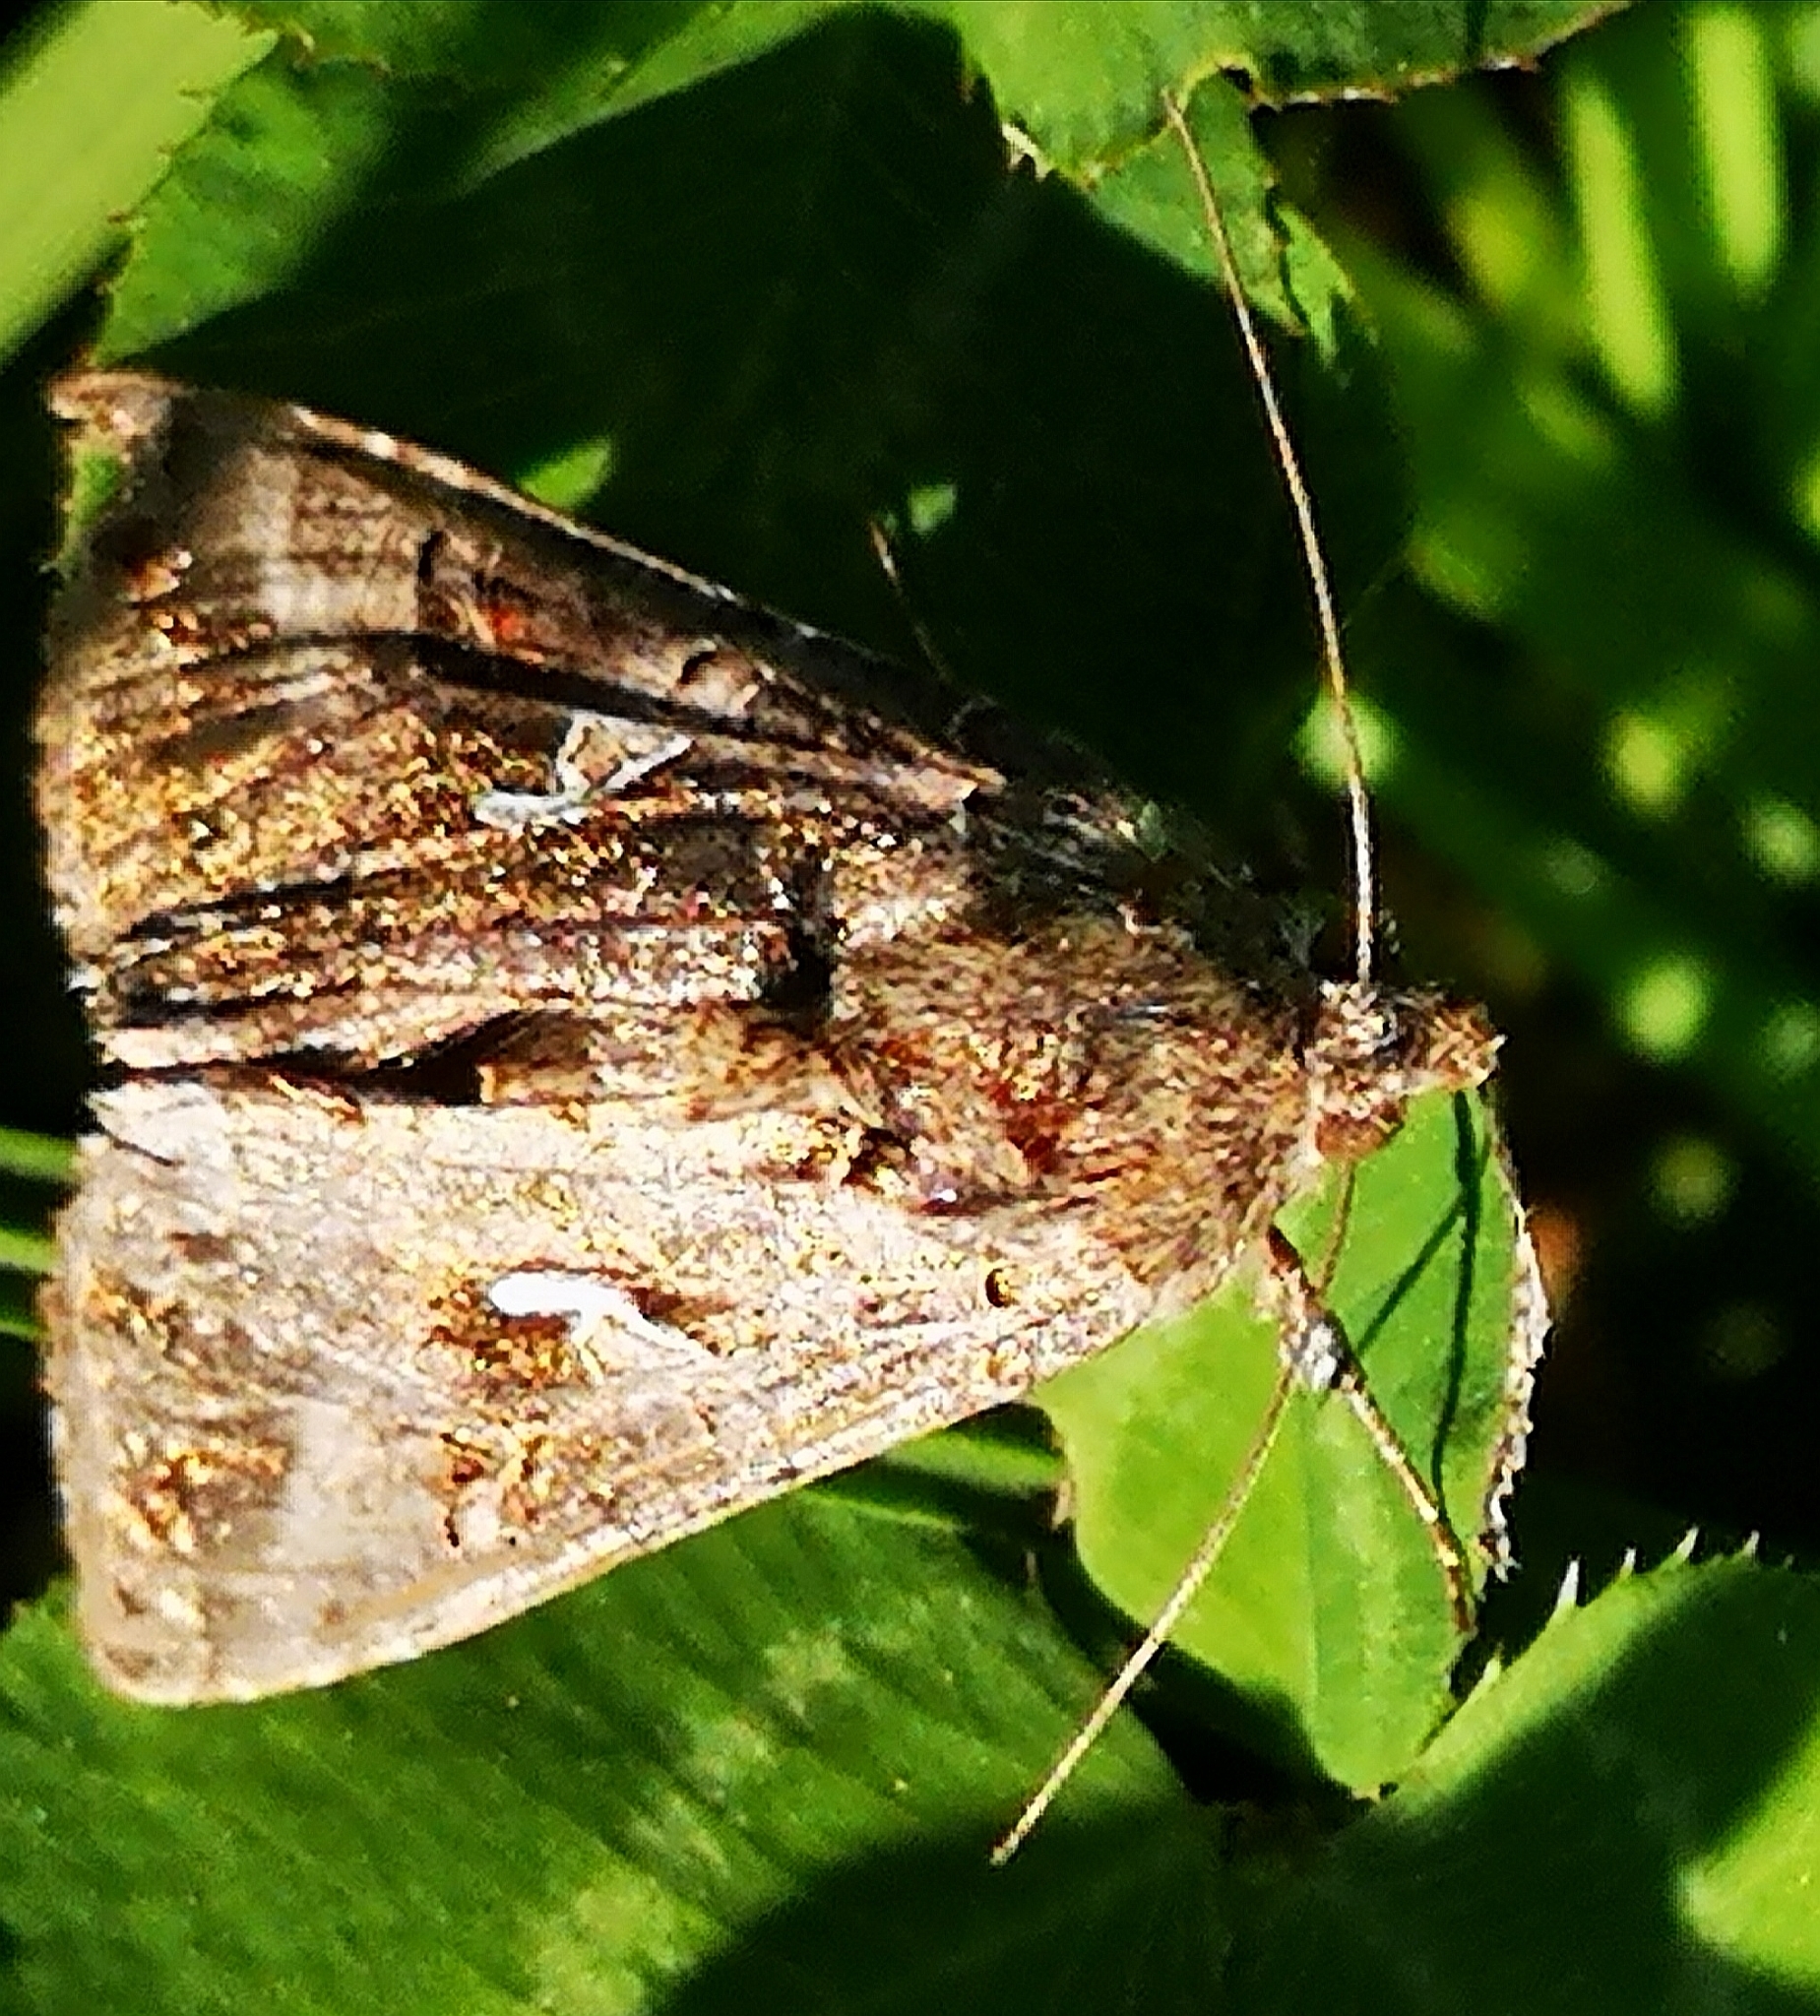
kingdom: Animalia
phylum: Arthropoda
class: Insecta
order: Lepidoptera
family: Noctuidae
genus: Autographa
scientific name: Autographa gamma
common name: Silver y
